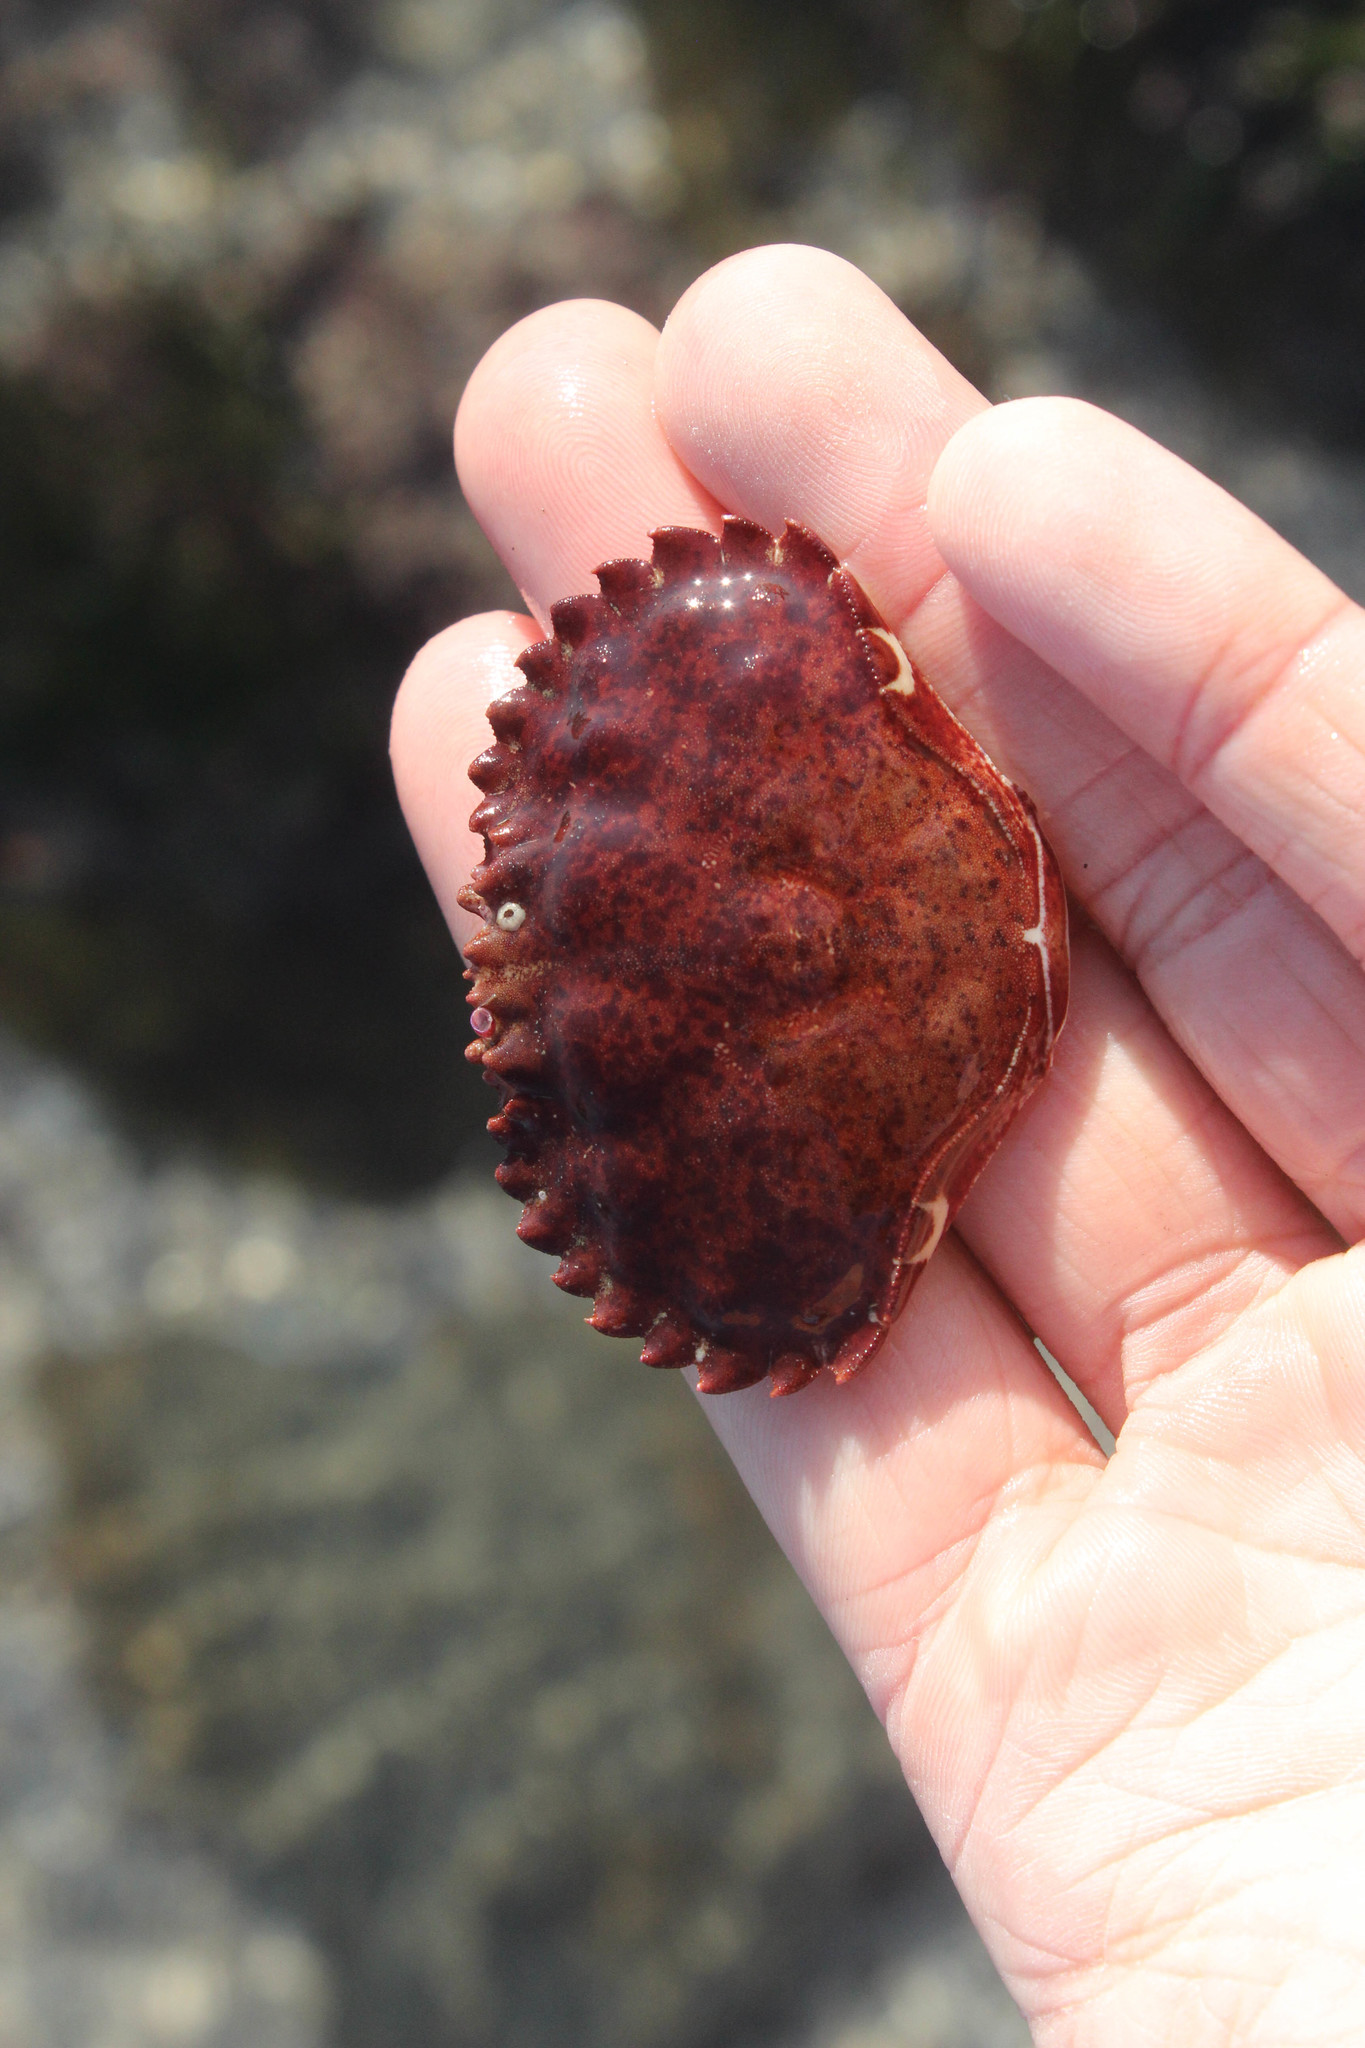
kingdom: Animalia
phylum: Arthropoda
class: Malacostraca
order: Decapoda
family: Cancridae
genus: Romaleon
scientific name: Romaleon antennarium
